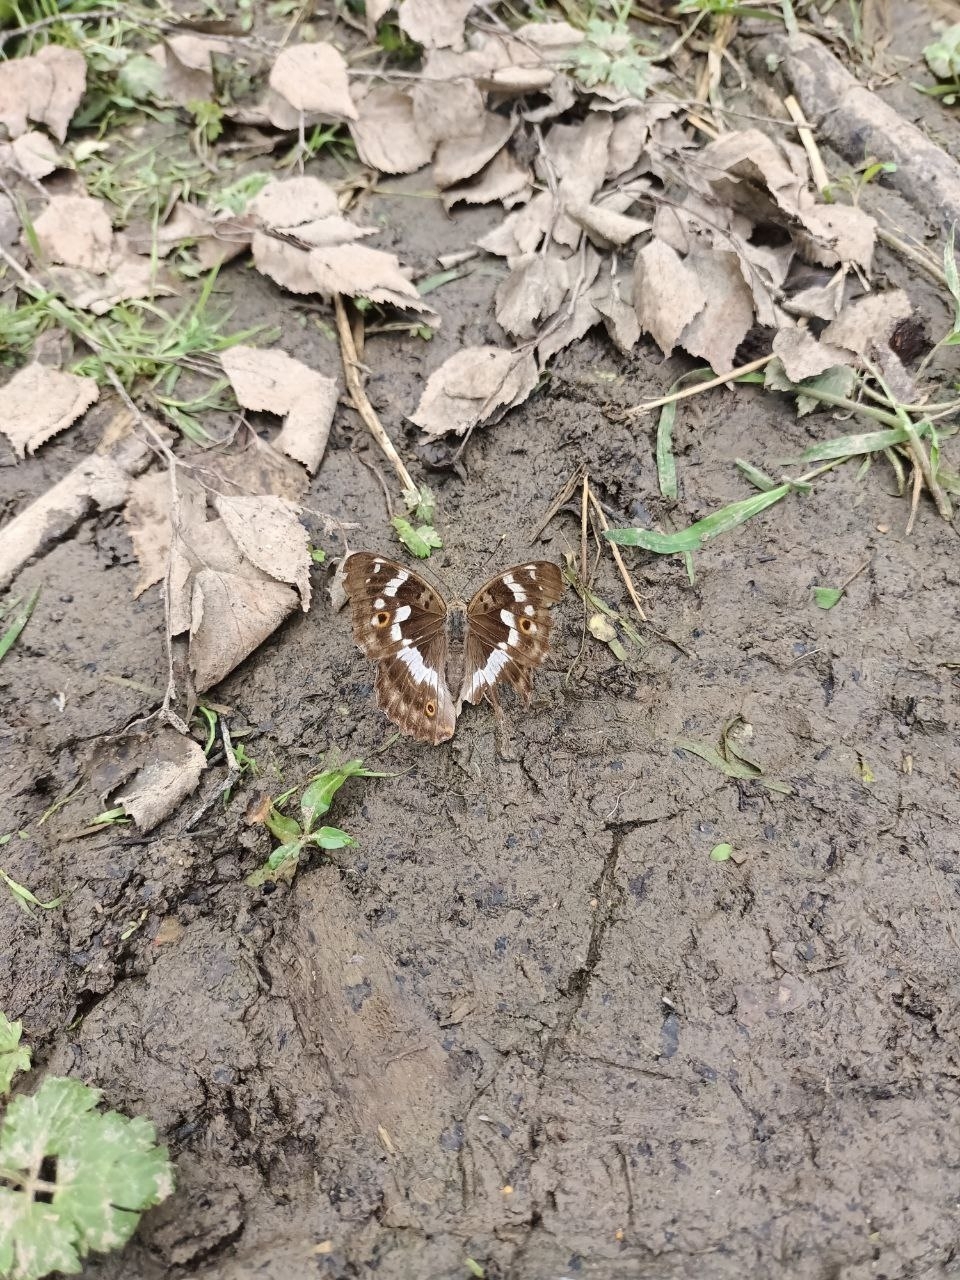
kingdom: Animalia
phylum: Arthropoda
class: Insecta
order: Lepidoptera
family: Nymphalidae
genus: Apatura
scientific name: Apatura ilia
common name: Lesser purple emperor
